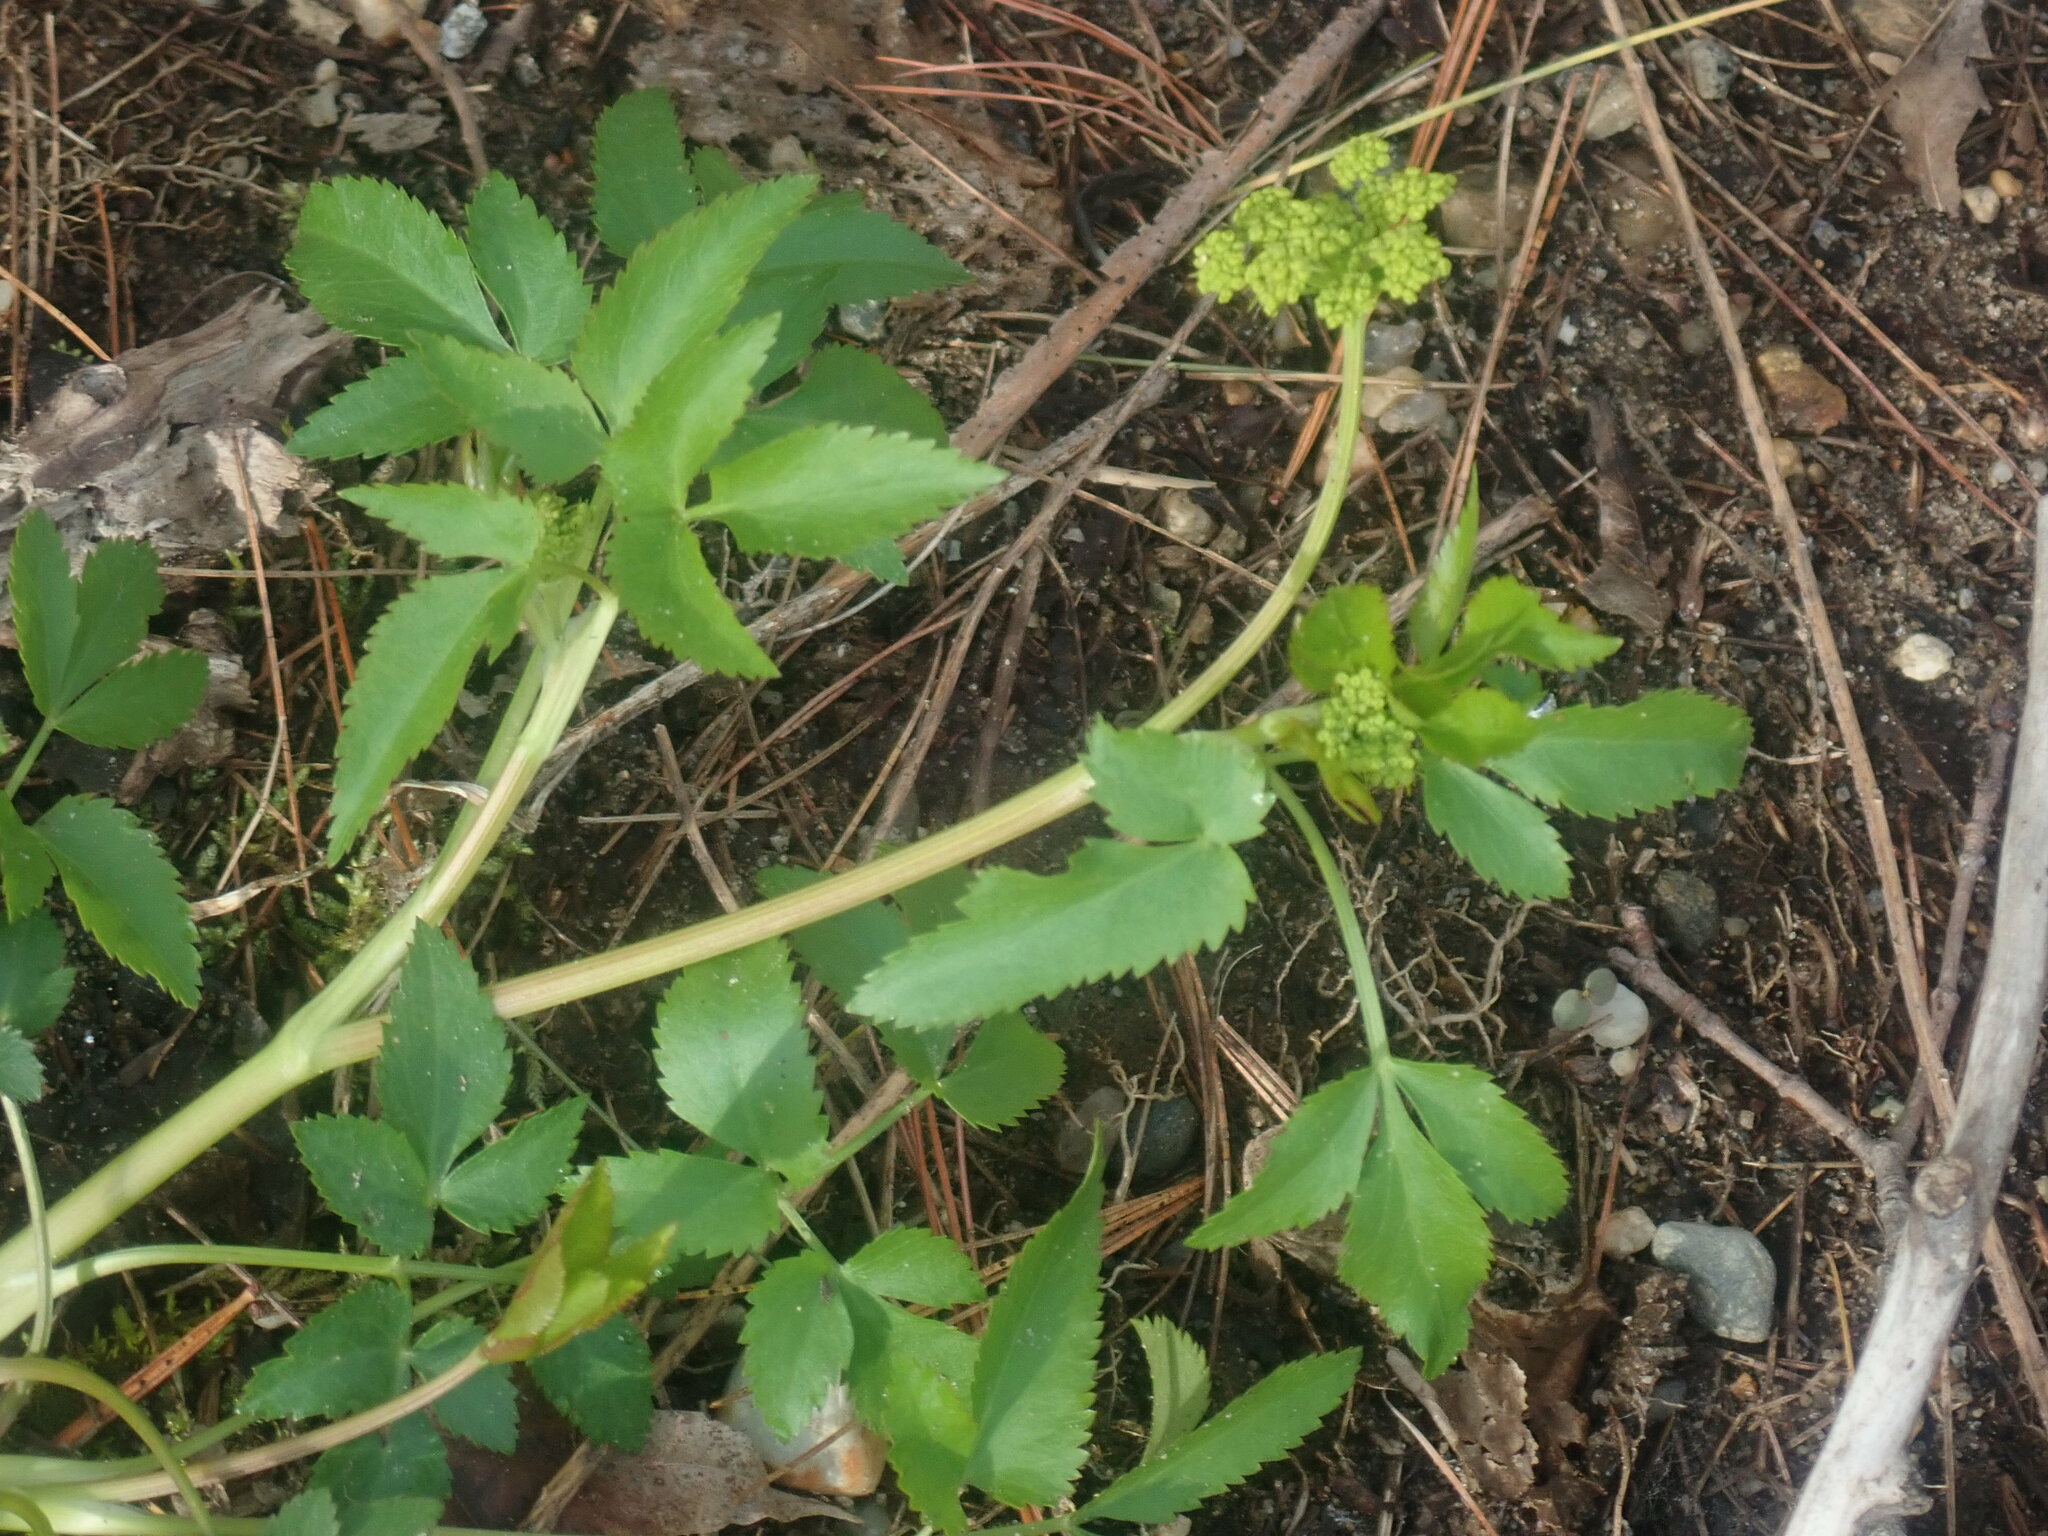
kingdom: Plantae
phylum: Tracheophyta
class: Magnoliopsida
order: Apiales
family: Apiaceae
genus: Zizia
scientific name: Zizia aurea
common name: Golden alexanders
